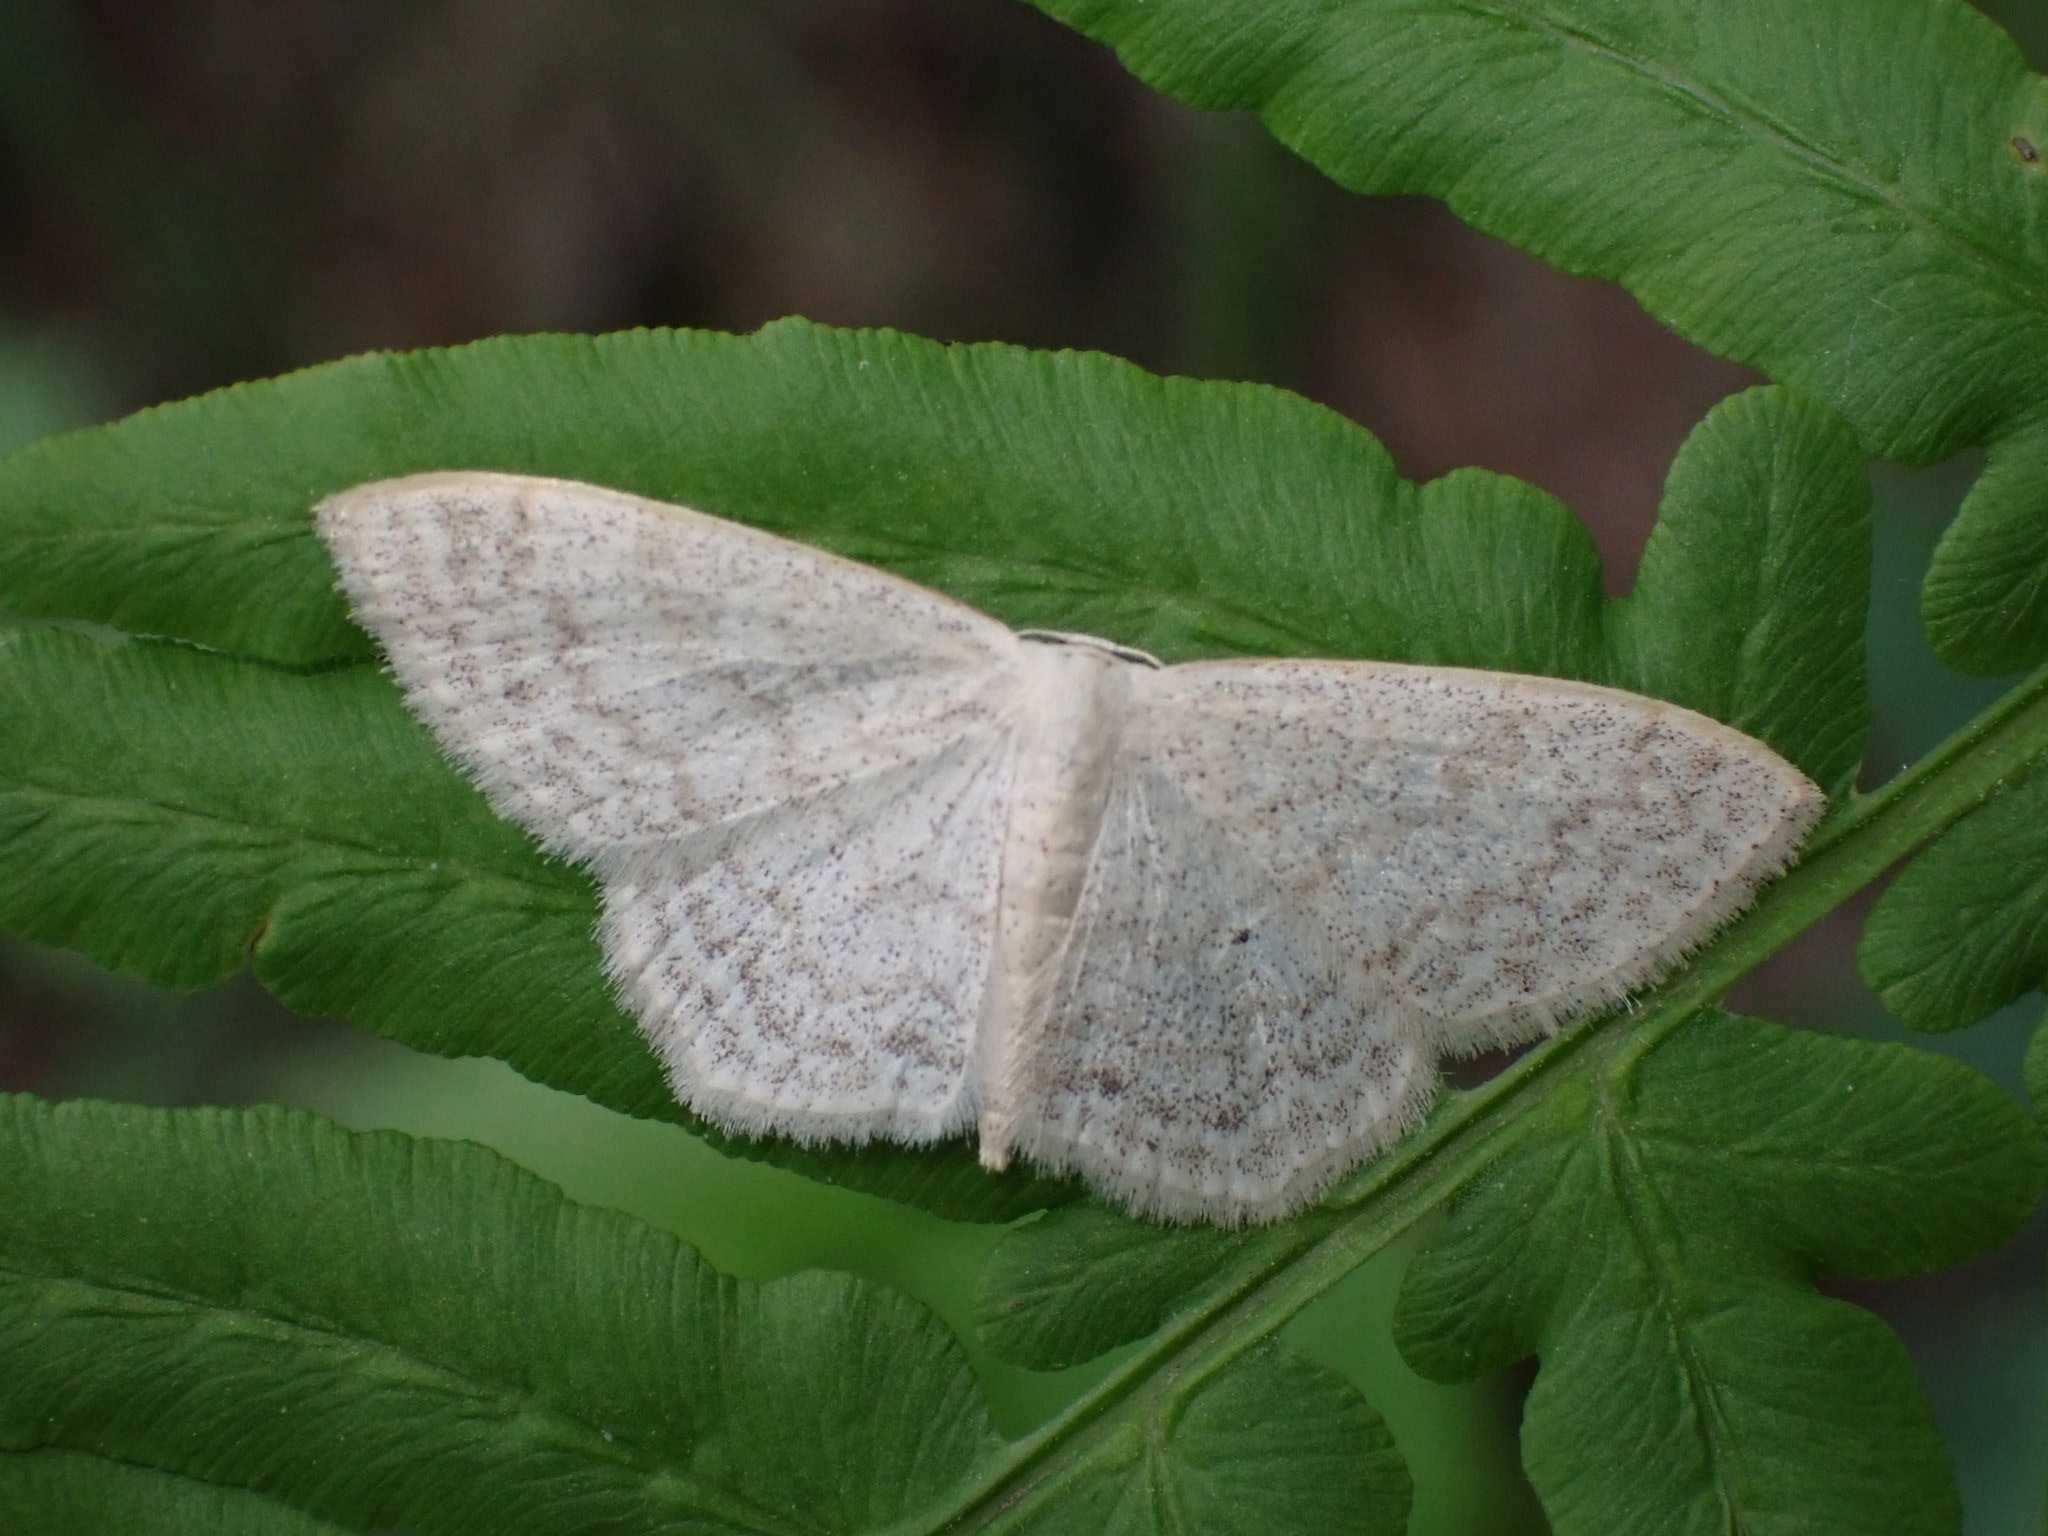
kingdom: Animalia
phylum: Arthropoda
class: Insecta
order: Lepidoptera
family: Geometridae
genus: Scopula
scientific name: Scopula floslactata
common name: Cream wave
